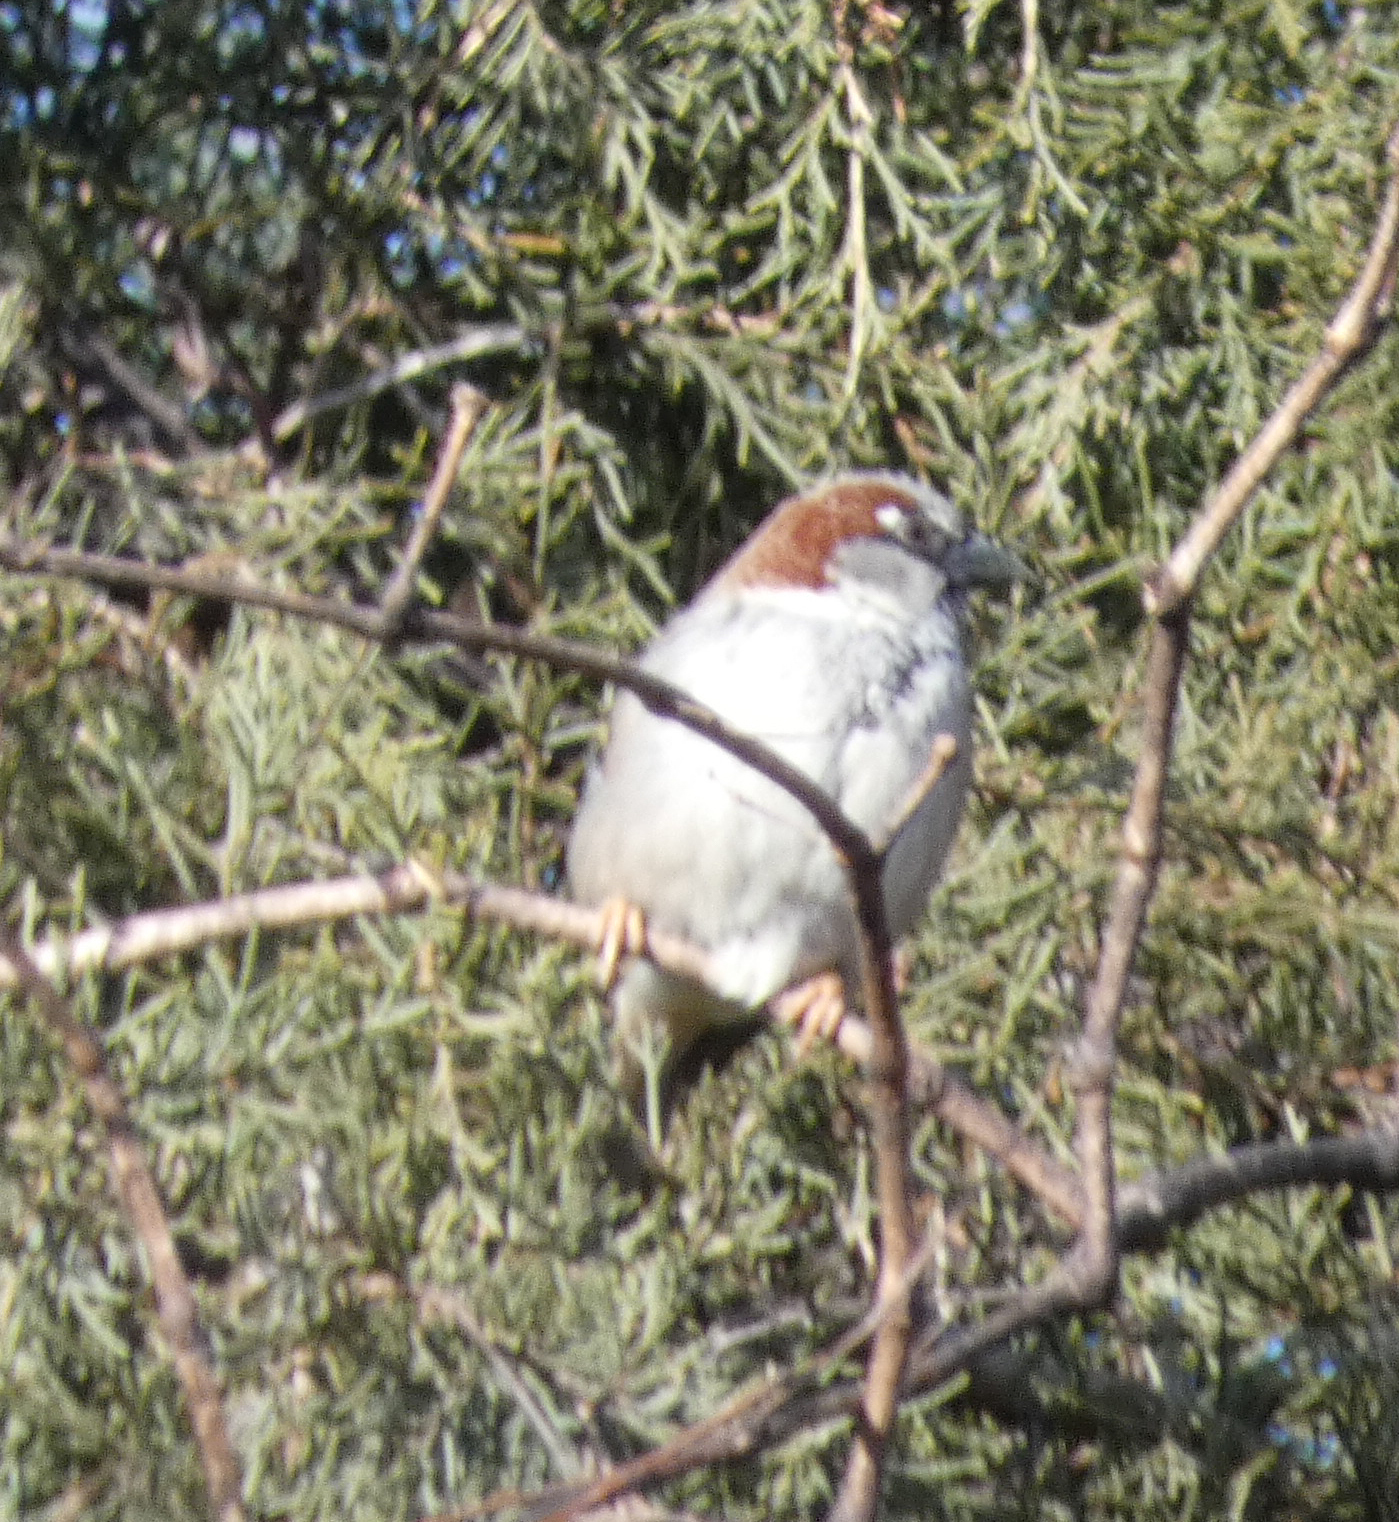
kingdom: Animalia
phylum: Chordata
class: Aves
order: Passeriformes
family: Passeridae
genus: Passer
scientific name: Passer domesticus
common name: House sparrow
